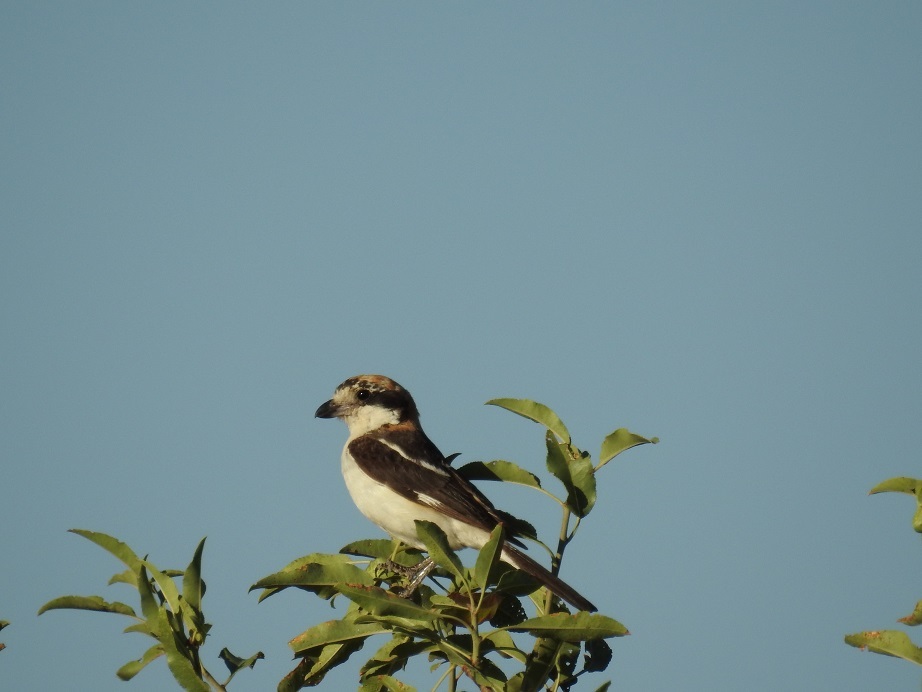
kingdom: Animalia
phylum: Chordata
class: Aves
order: Passeriformes
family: Laniidae
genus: Lanius
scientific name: Lanius senator
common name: Woodchat shrike
